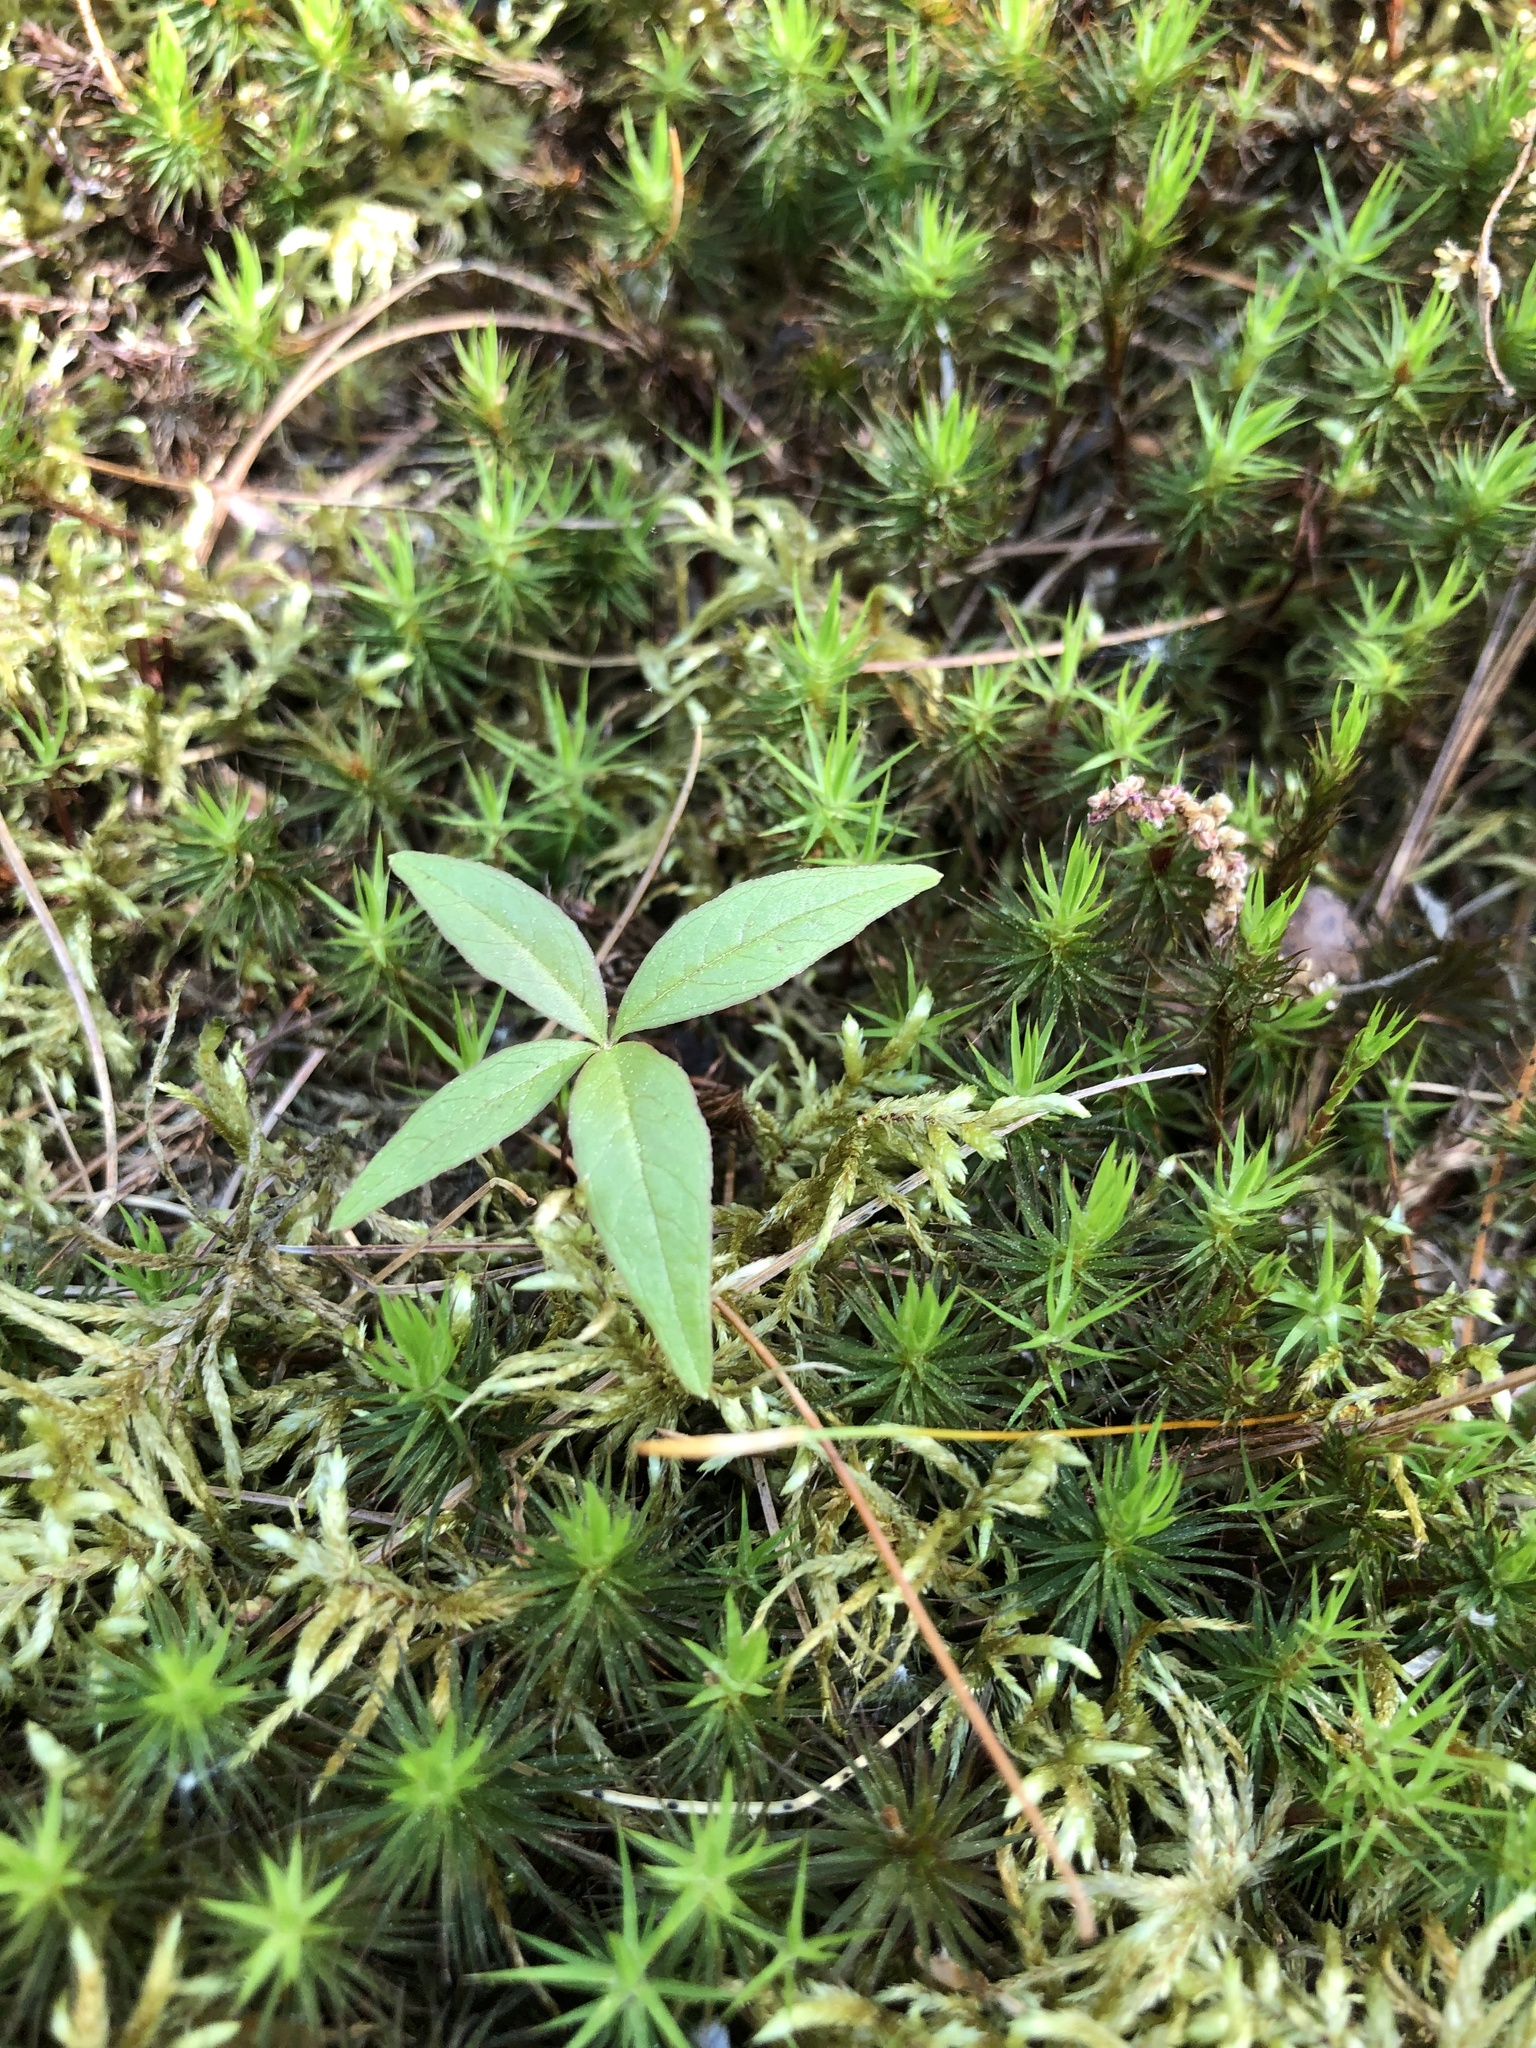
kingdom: Plantae
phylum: Tracheophyta
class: Magnoliopsida
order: Ericales
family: Primulaceae
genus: Lysimachia
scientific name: Lysimachia borealis
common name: American starflower
